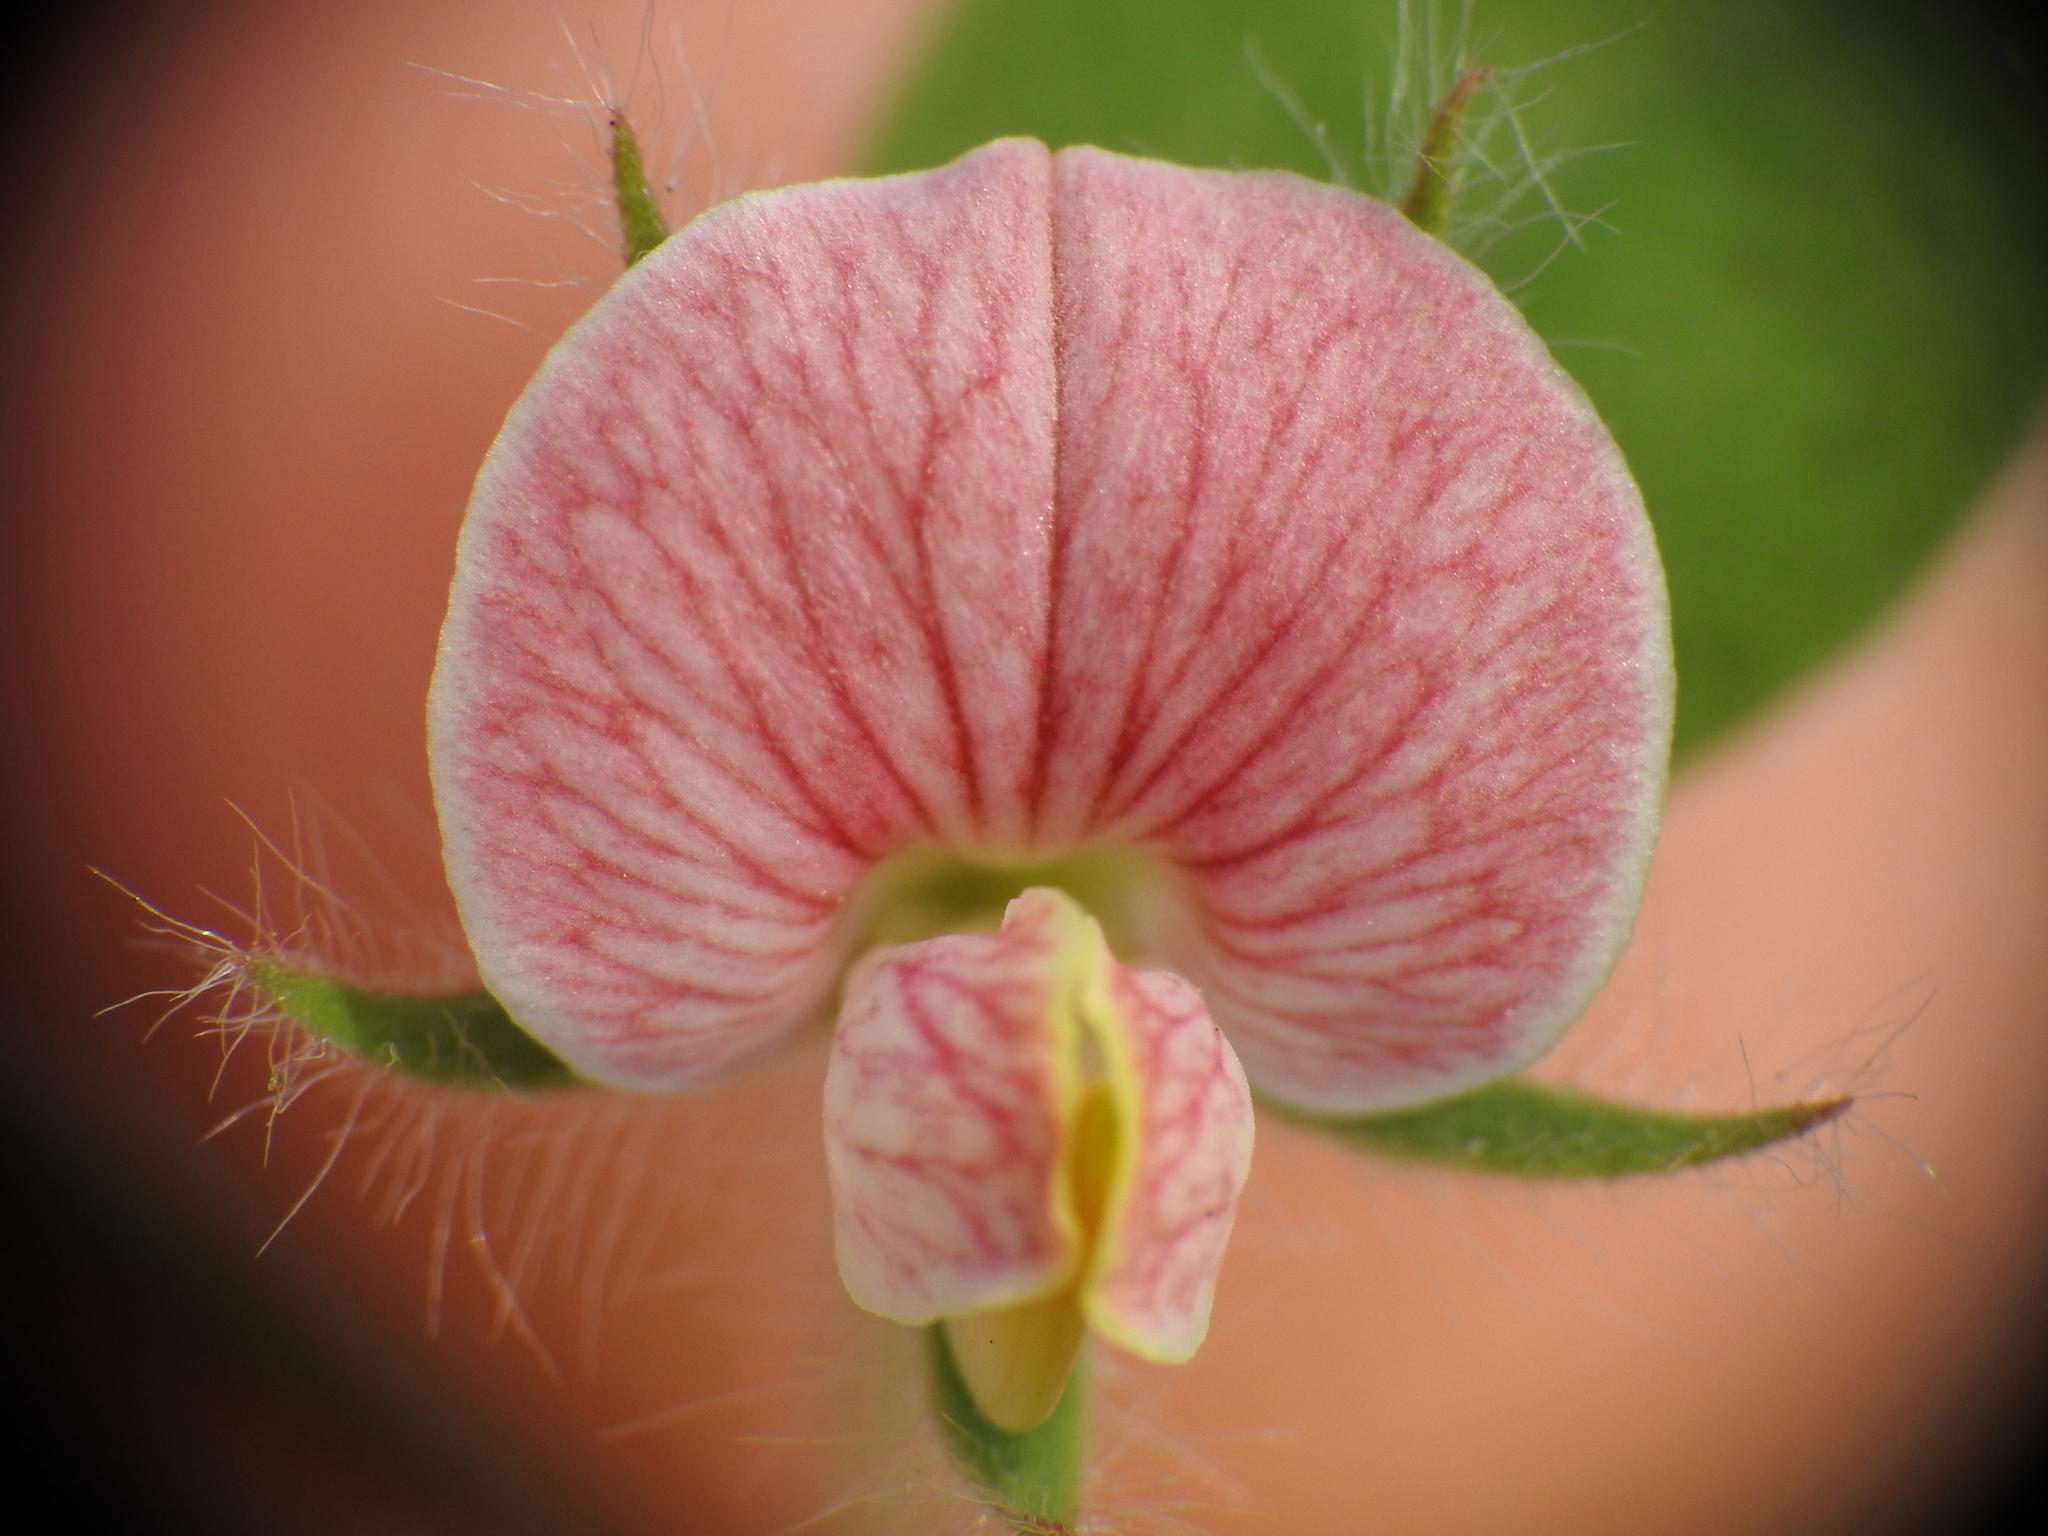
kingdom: Plantae
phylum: Tracheophyta
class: Magnoliopsida
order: Fabales
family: Fabaceae
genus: Acmispon
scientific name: Acmispon americanus
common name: American bird's-foot trefoil
